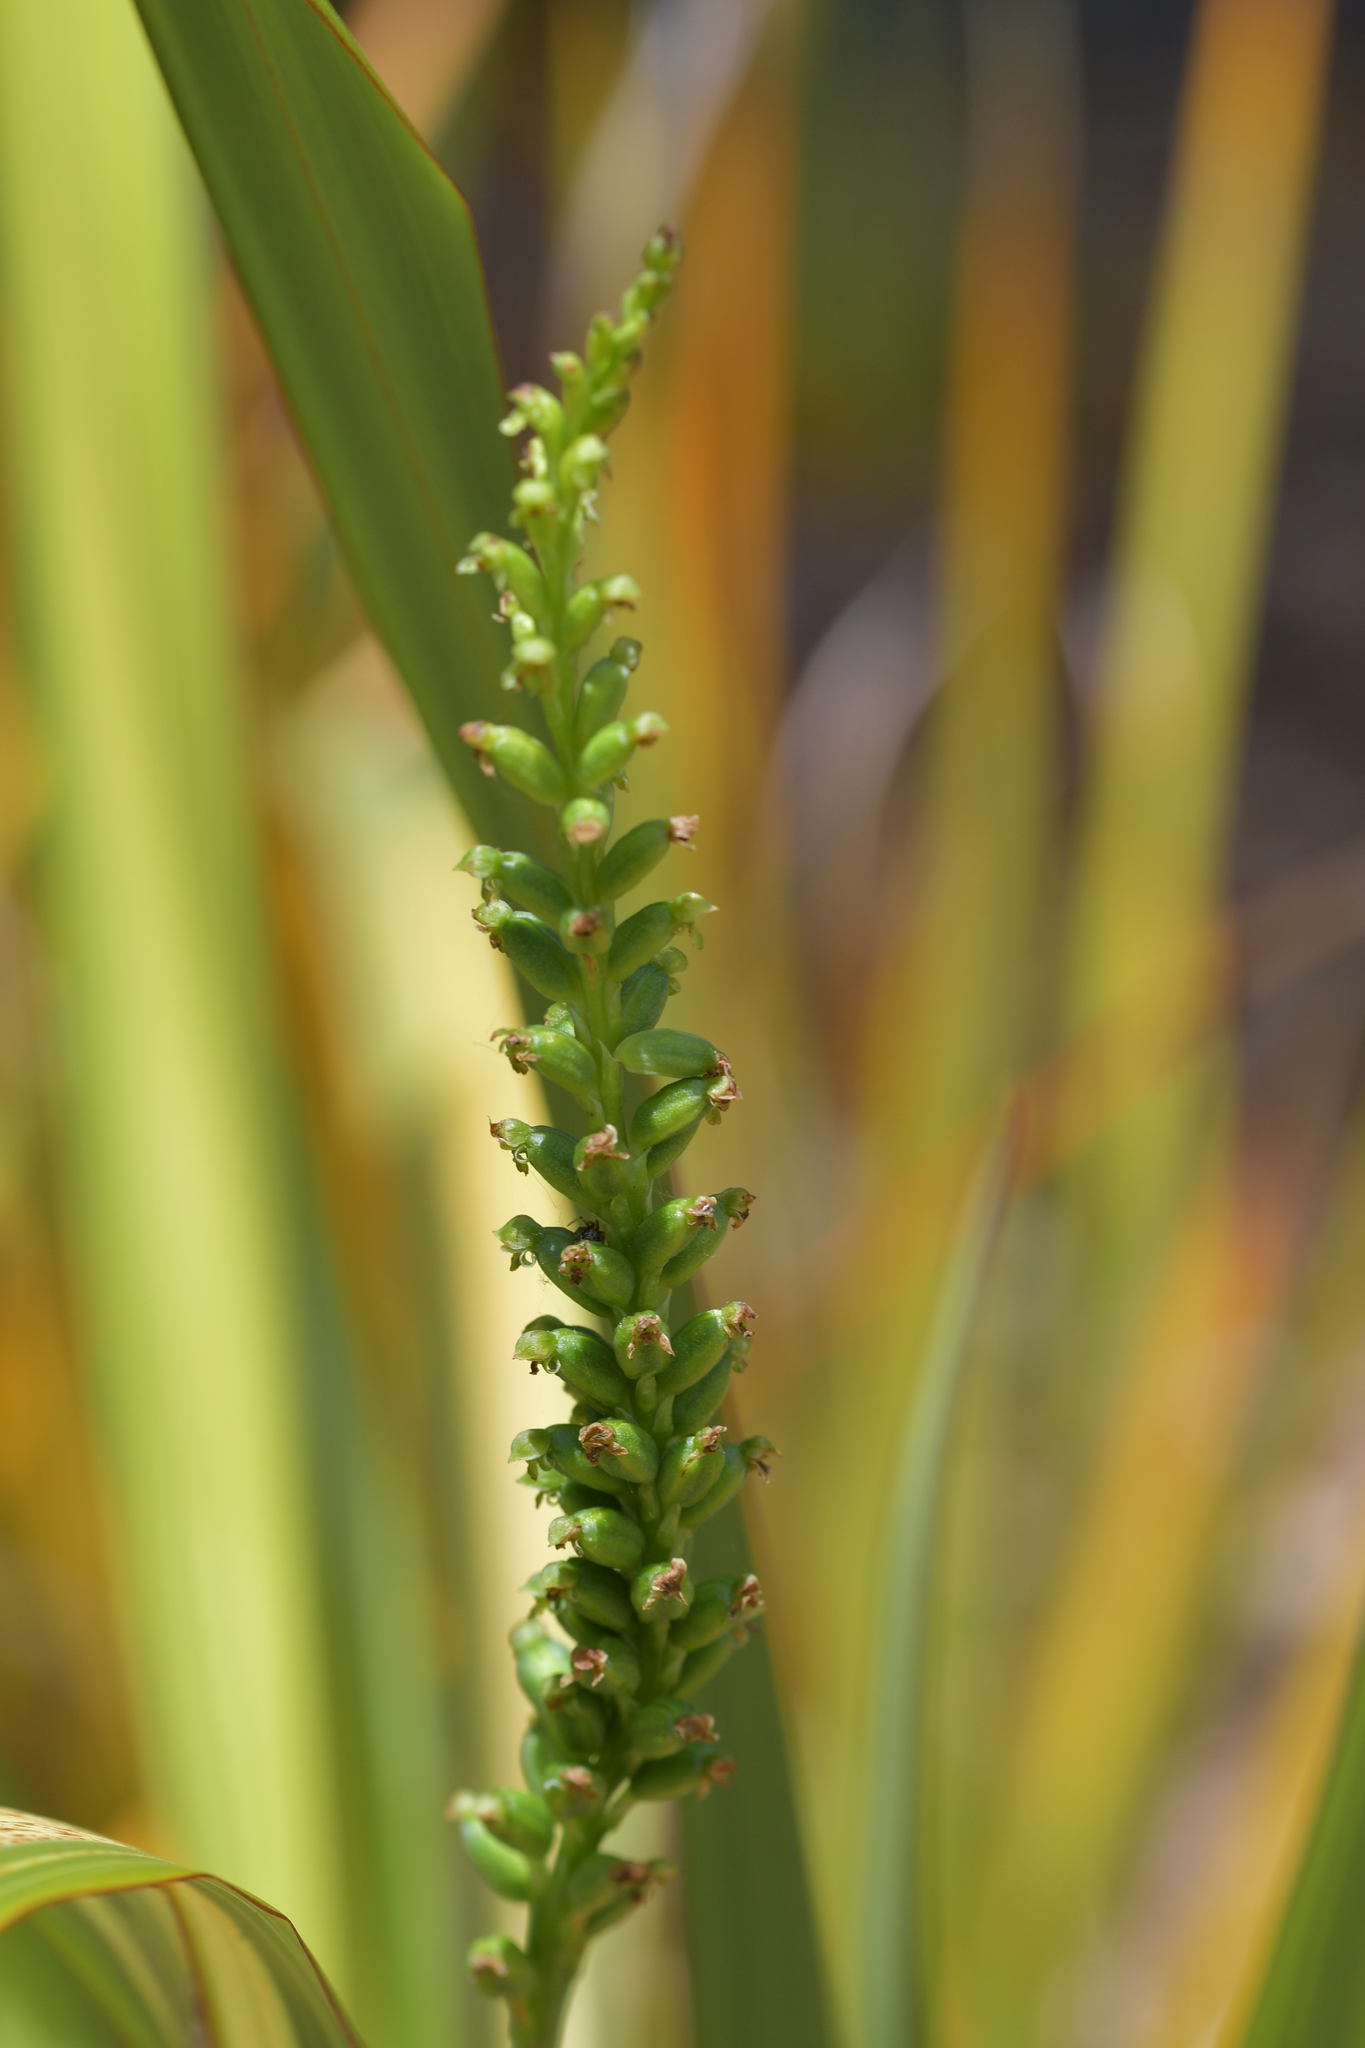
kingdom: Plantae
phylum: Tracheophyta
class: Liliopsida
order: Asparagales
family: Orchidaceae
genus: Microtis
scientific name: Microtis unifolia
